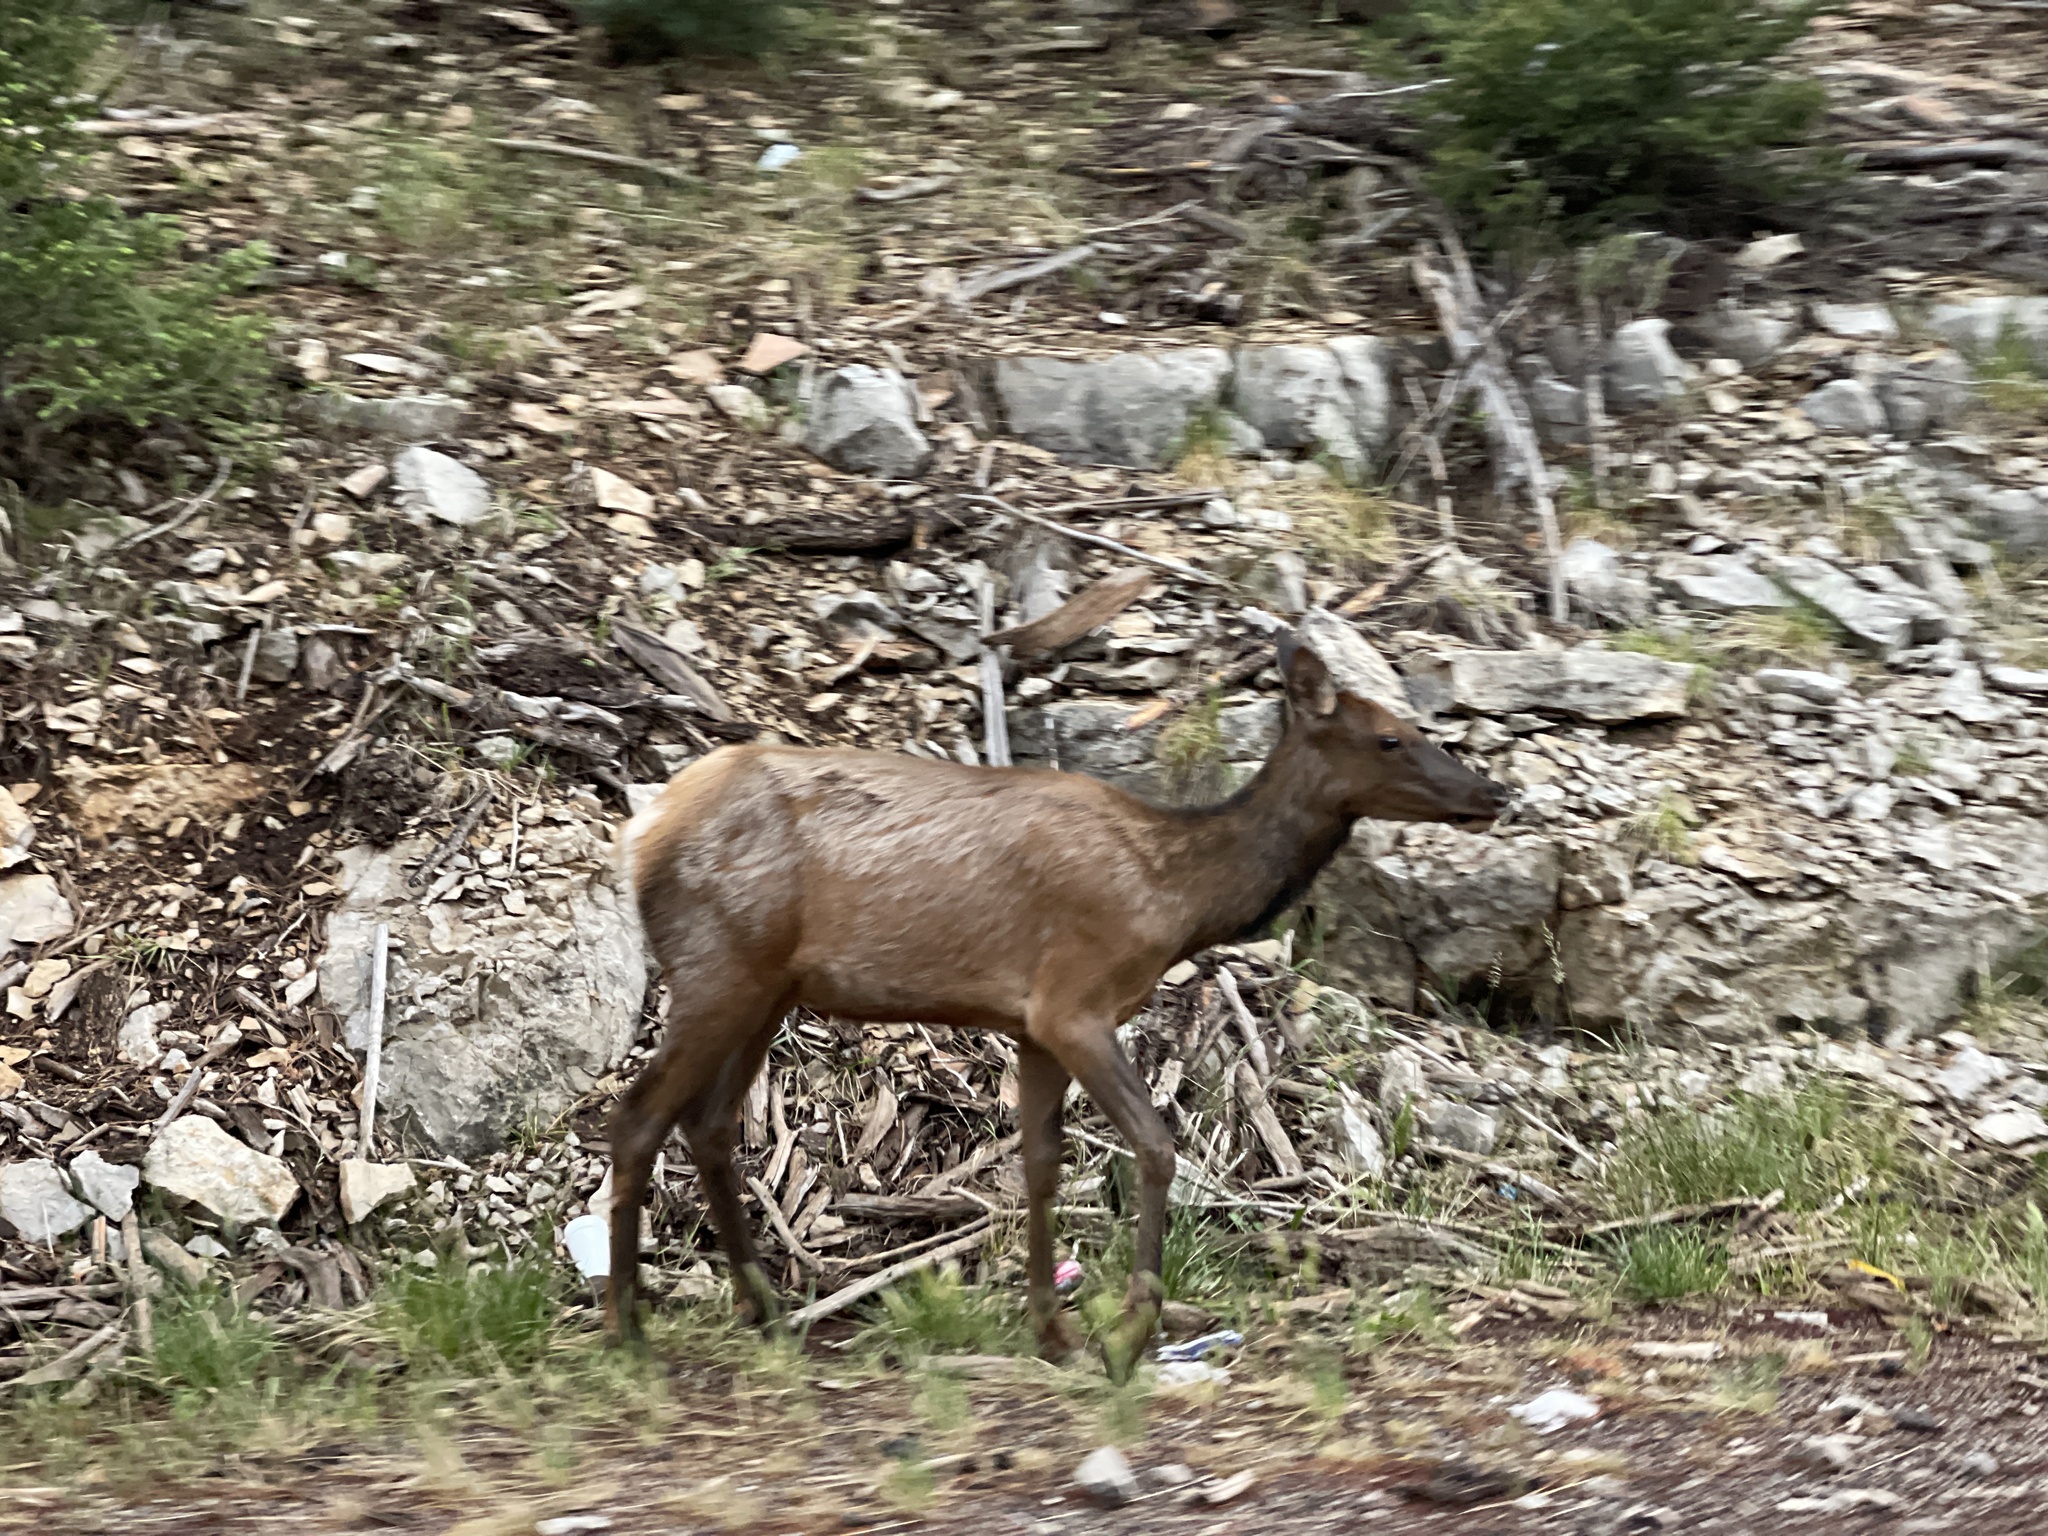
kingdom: Animalia
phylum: Chordata
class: Mammalia
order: Artiodactyla
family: Cervidae
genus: Cervus
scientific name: Cervus elaphus
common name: Red deer
